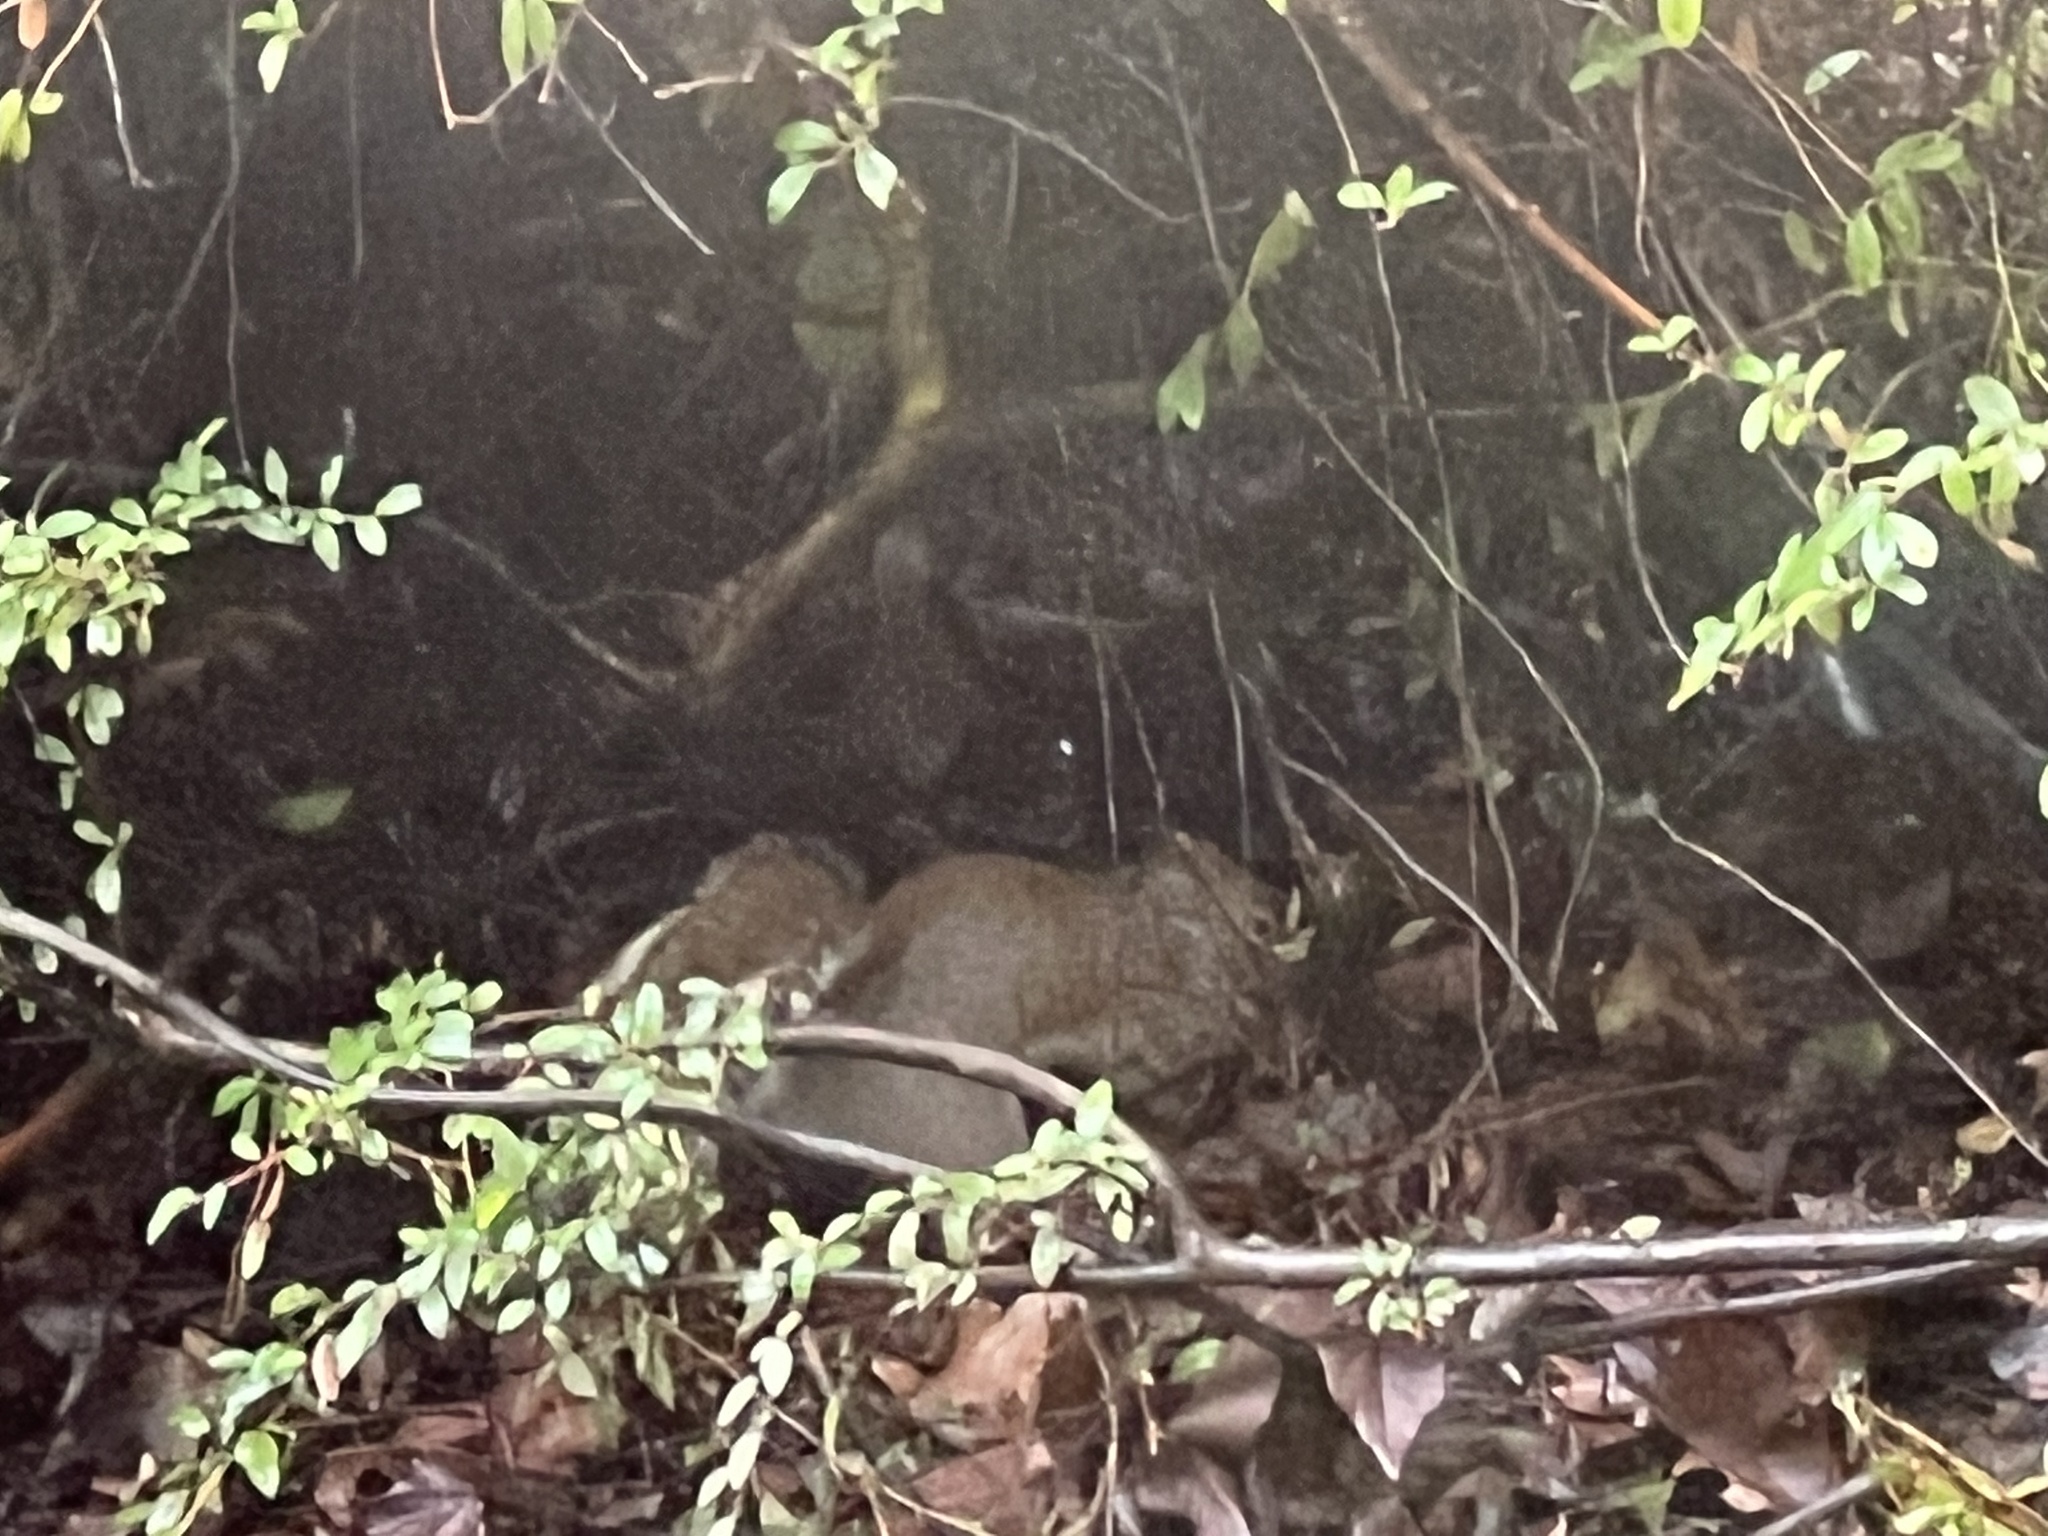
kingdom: Animalia
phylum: Chordata
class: Mammalia
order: Rodentia
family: Sciuridae
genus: Sciurus
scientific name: Sciurus carolinensis
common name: Eastern gray squirrel
